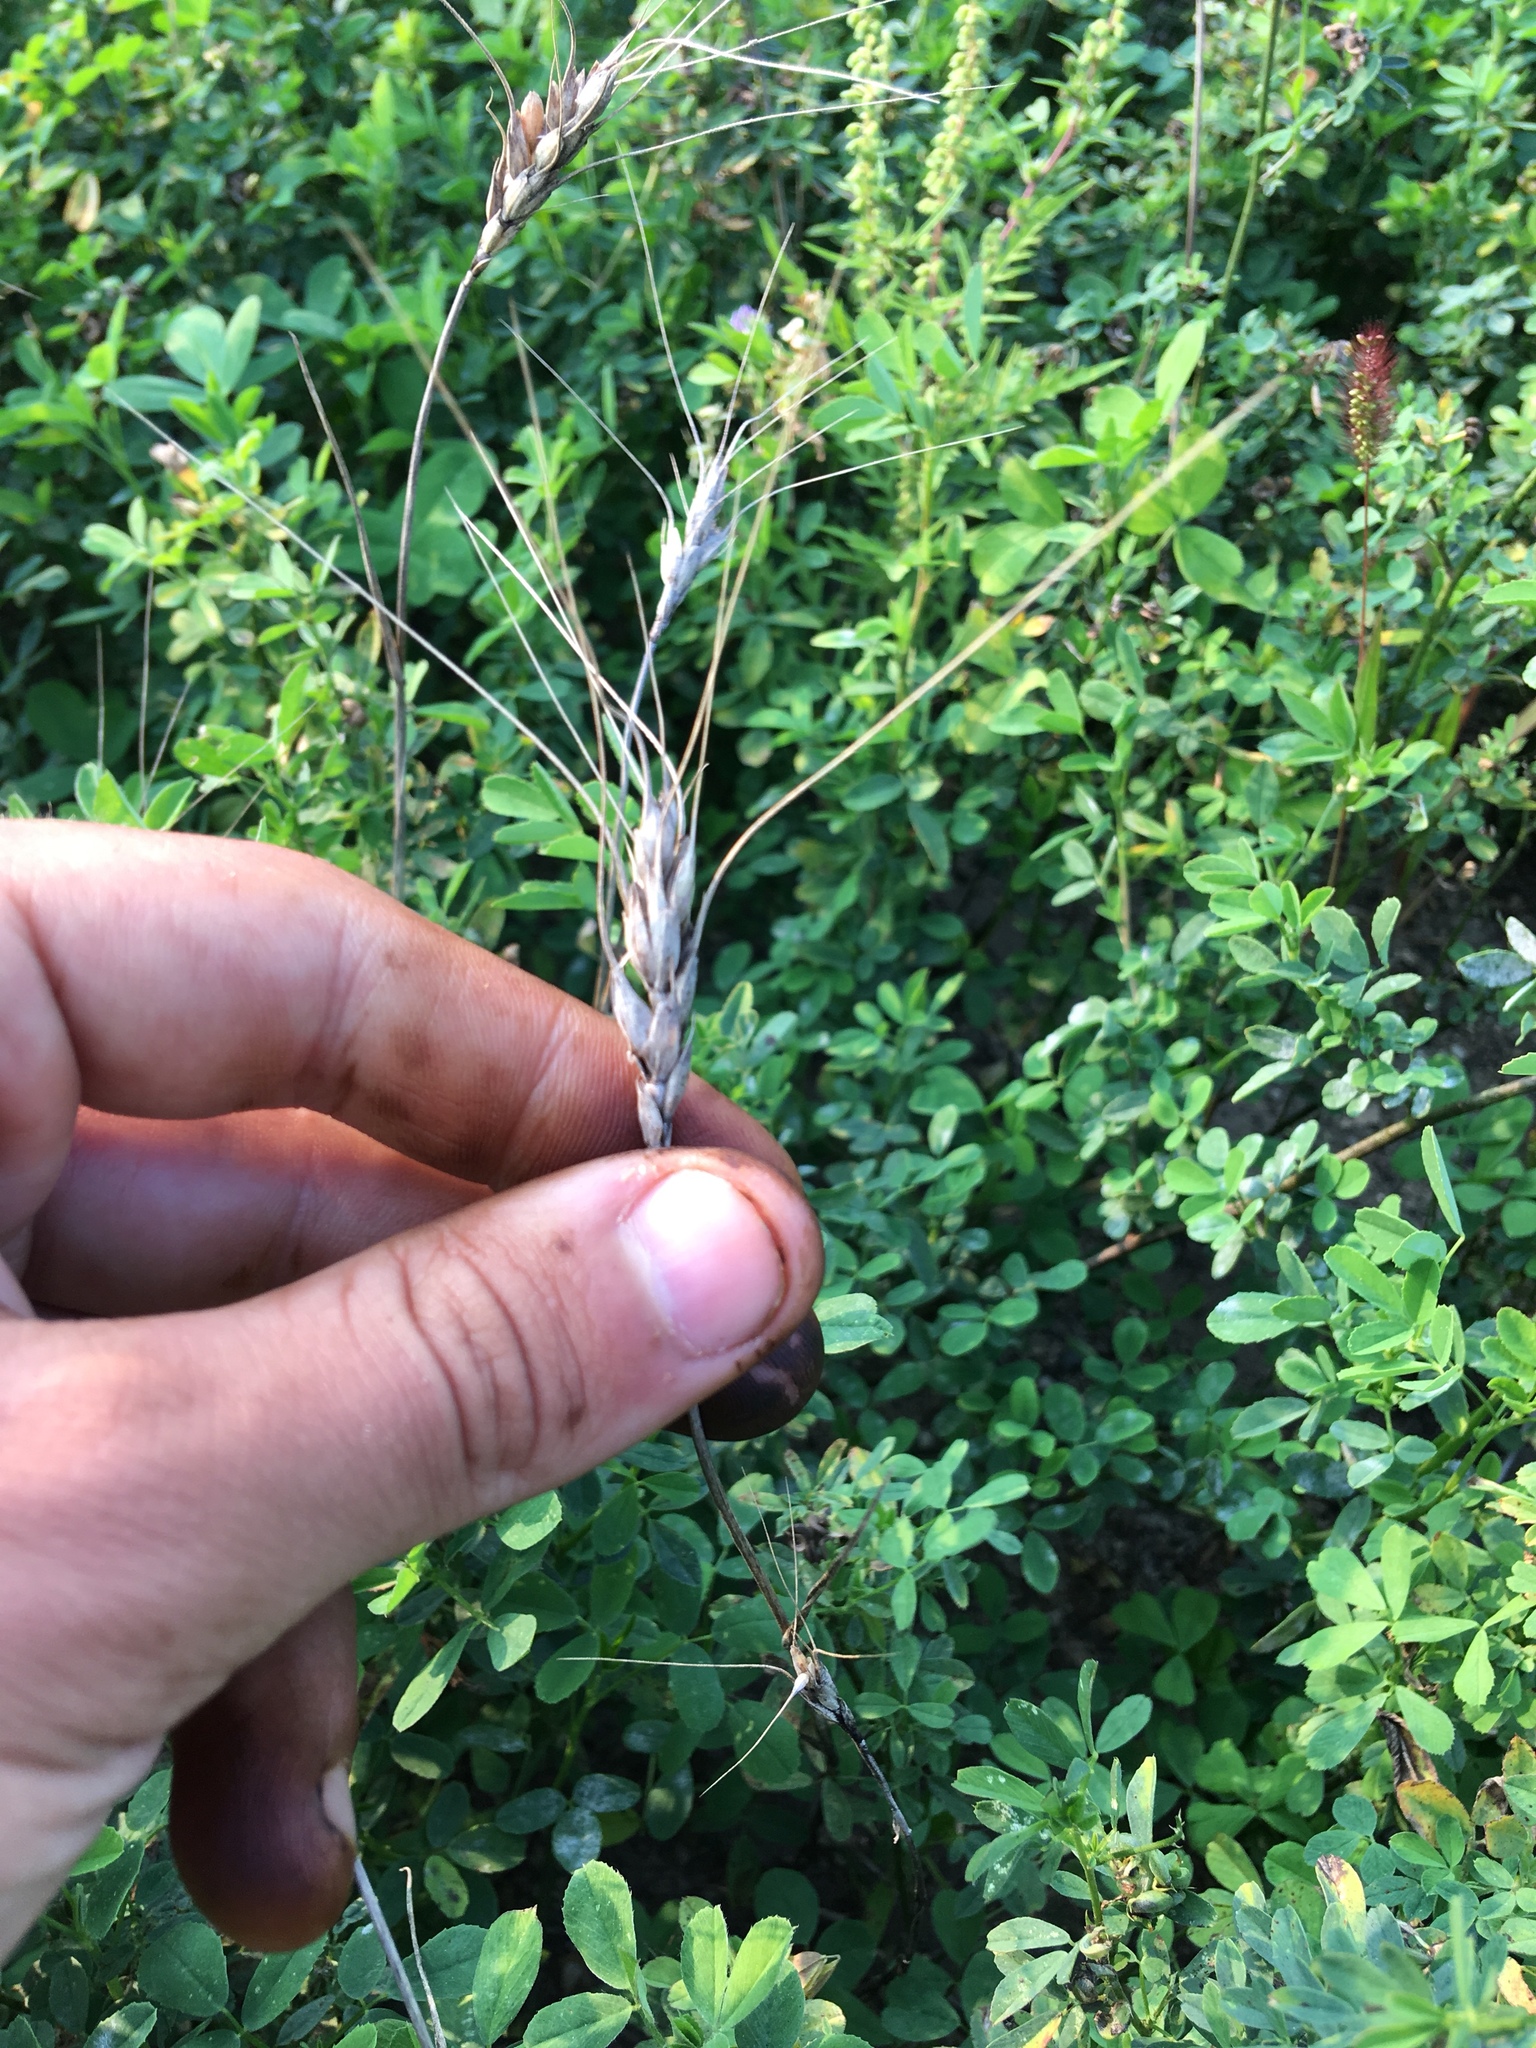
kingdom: Plantae
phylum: Tracheophyta
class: Liliopsida
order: Poales
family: Poaceae
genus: Triticum
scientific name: Triticum aestivum
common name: Common wheat
